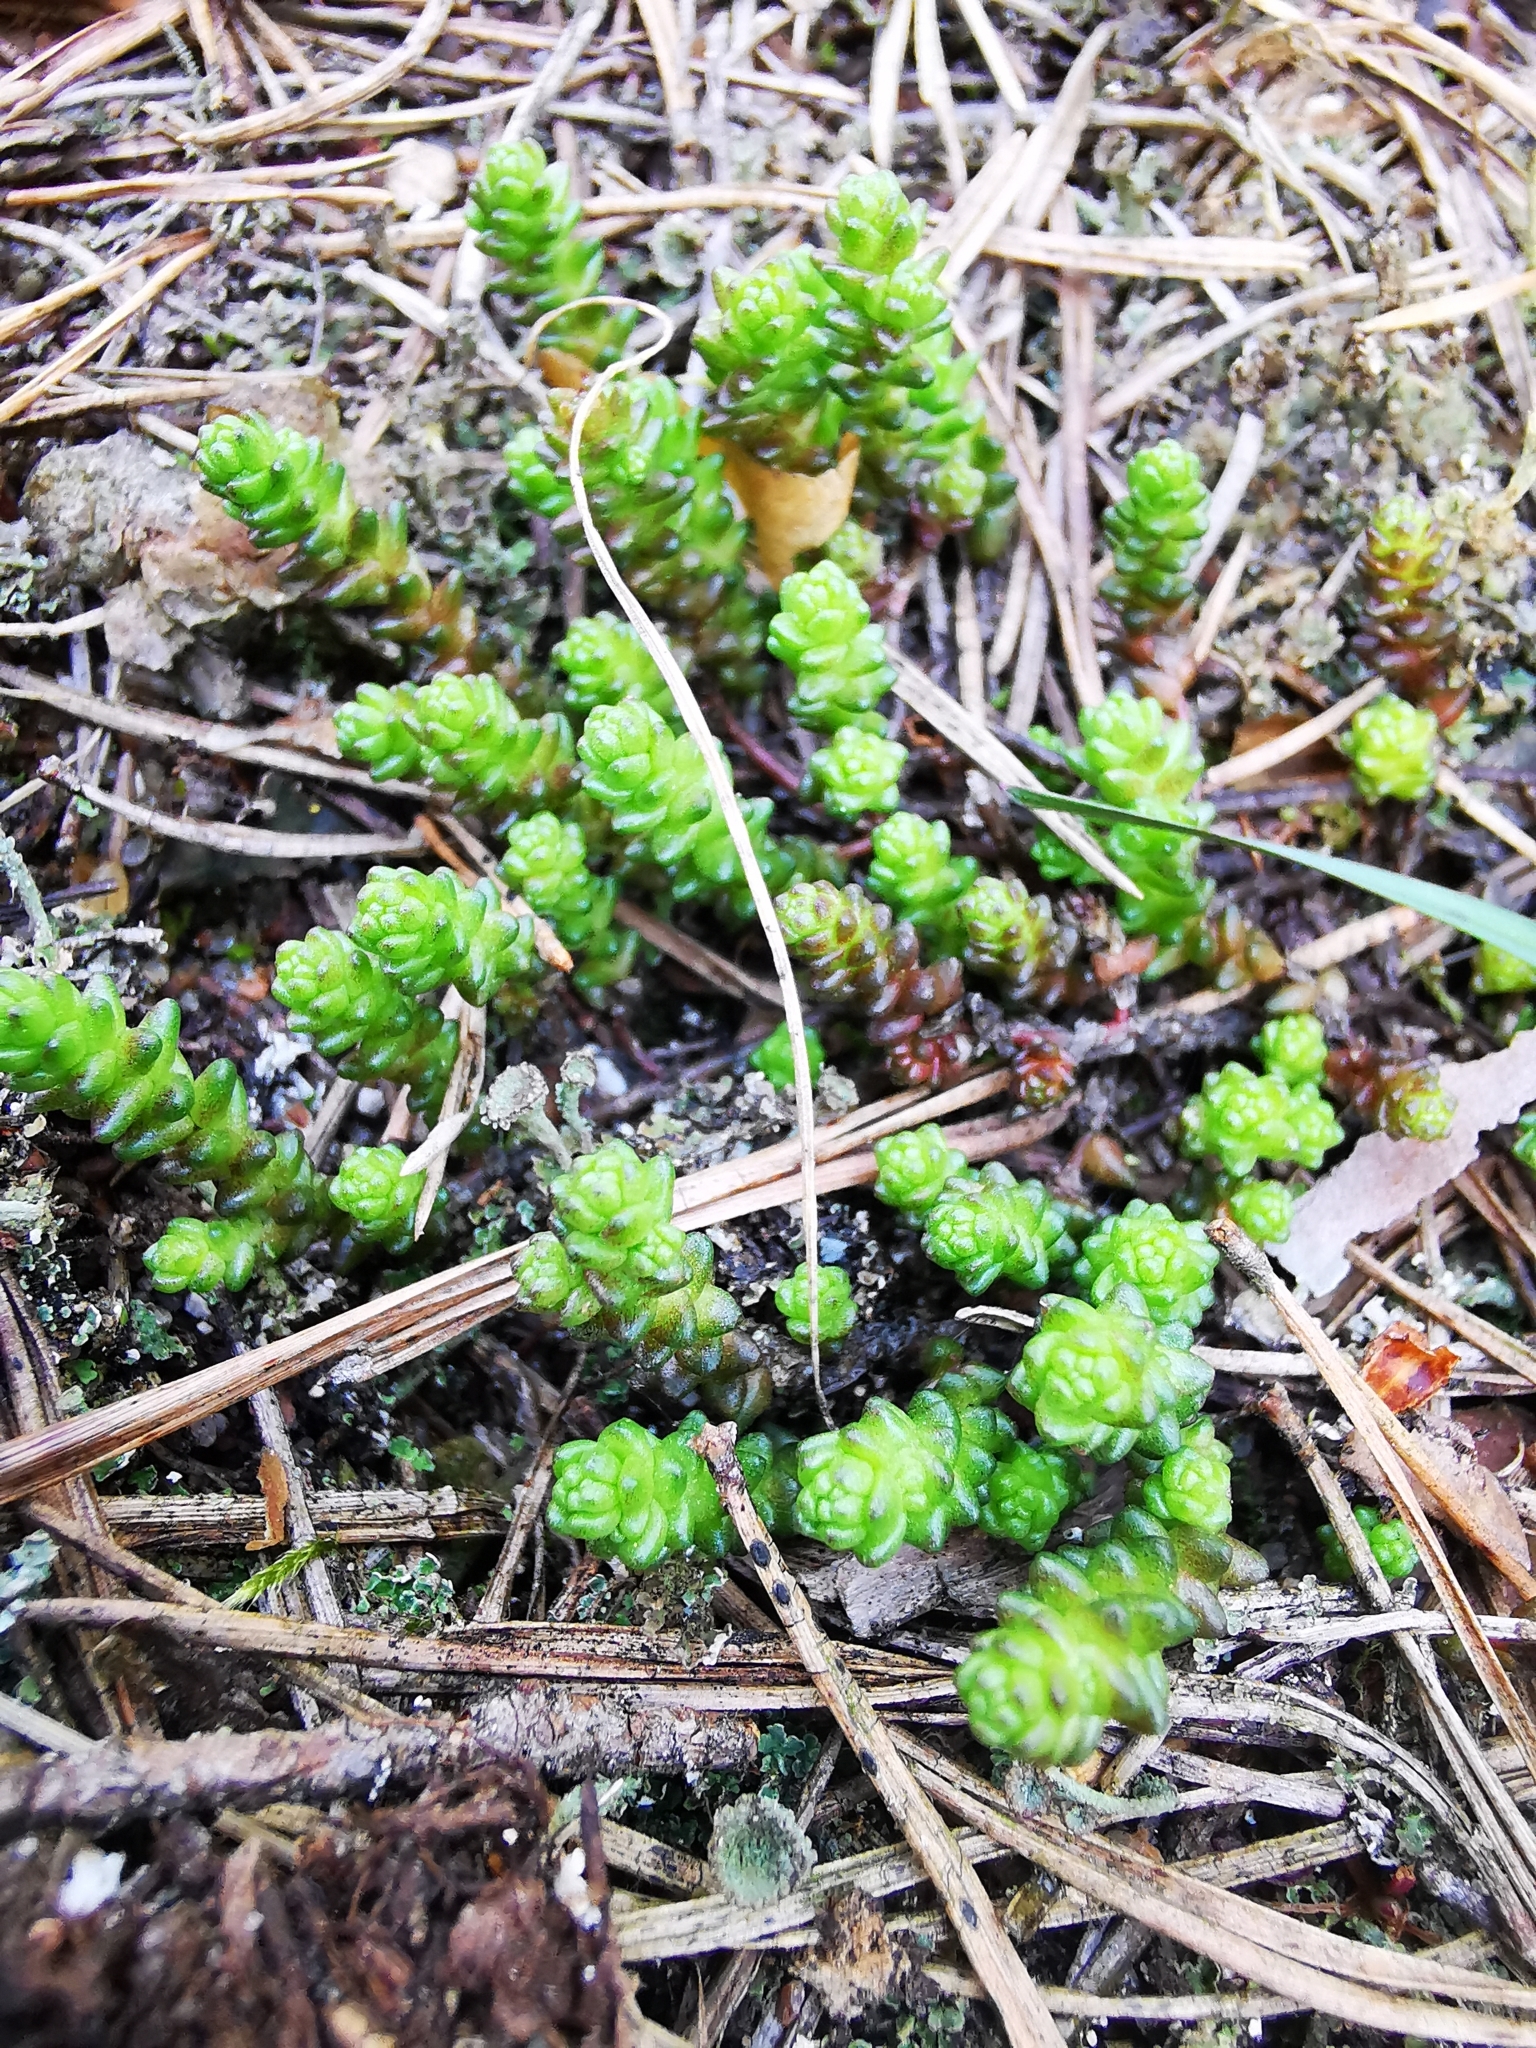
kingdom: Plantae
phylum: Tracheophyta
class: Magnoliopsida
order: Saxifragales
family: Crassulaceae
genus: Sedum
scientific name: Sedum acre
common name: Biting stonecrop
